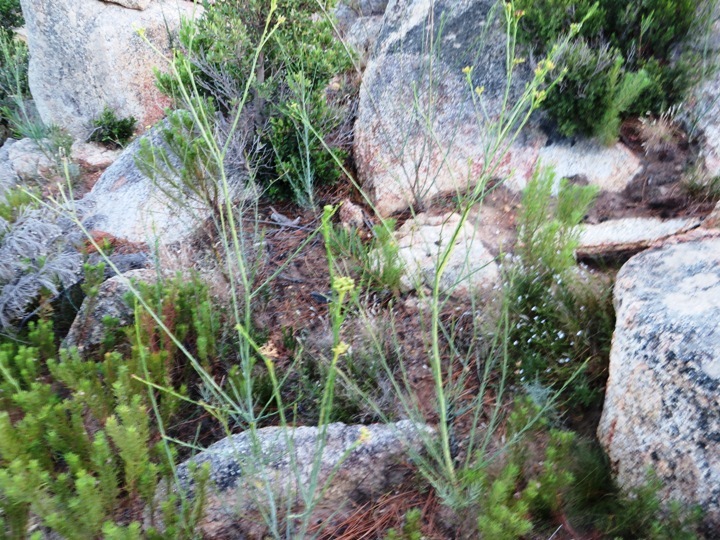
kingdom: Plantae
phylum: Tracheophyta
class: Magnoliopsida
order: Santalales
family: Thesiaceae
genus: Thesium
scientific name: Thesium strictum
